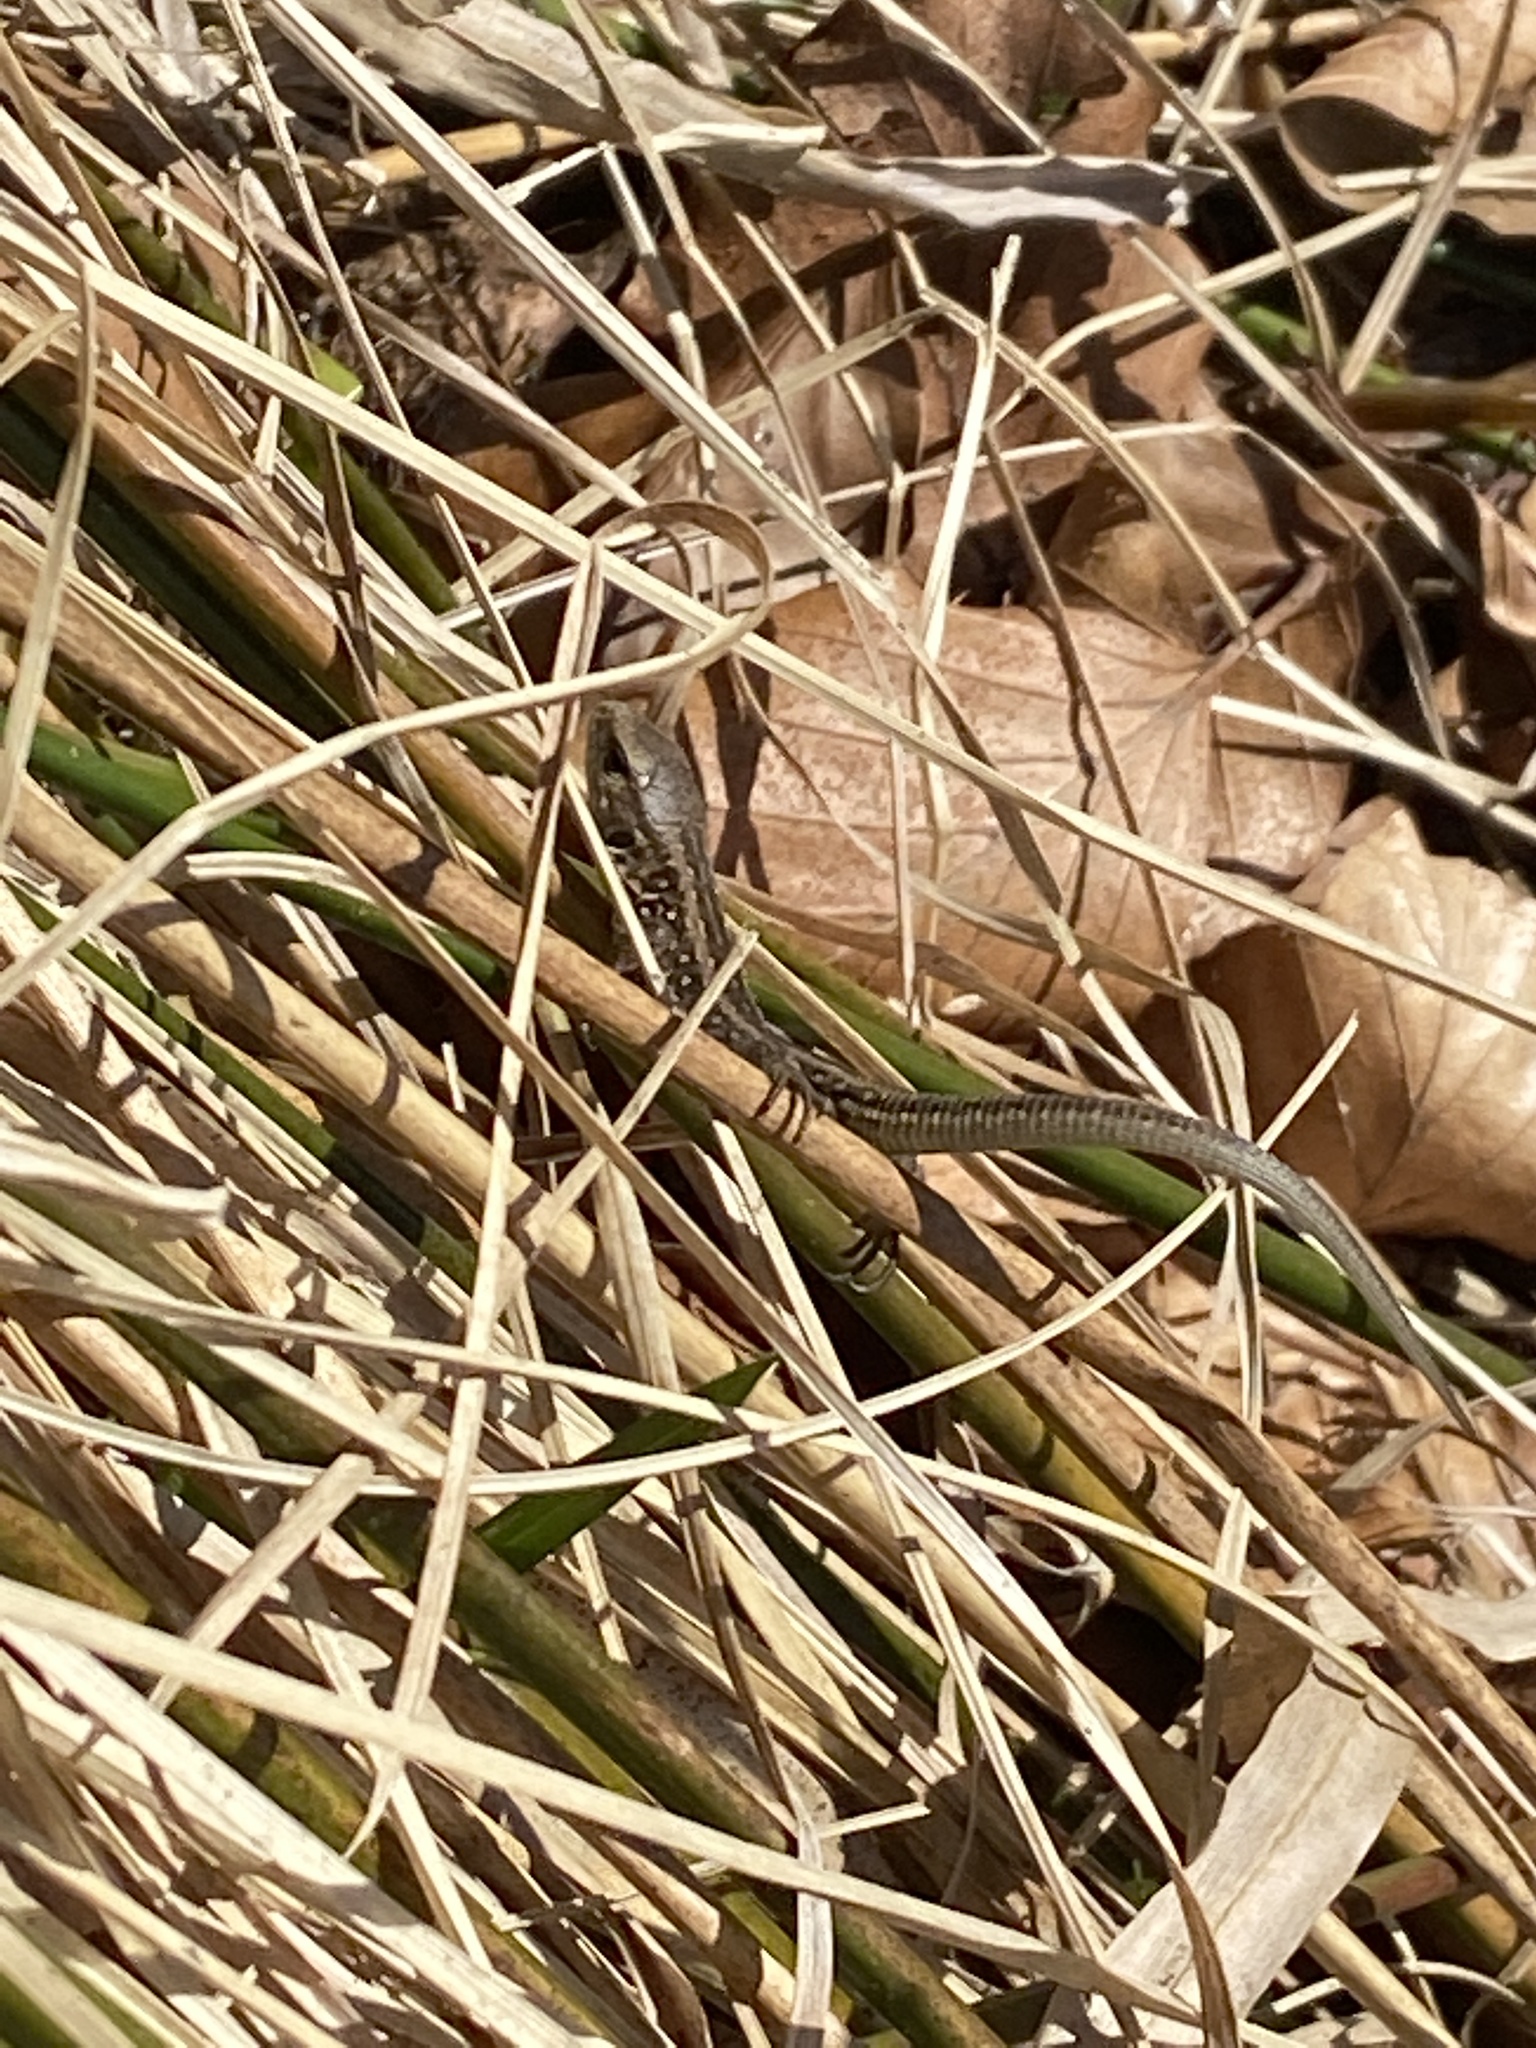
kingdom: Animalia
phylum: Chordata
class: Squamata
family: Lacertidae
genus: Lacerta
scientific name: Lacerta agilis
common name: Sand lizard
